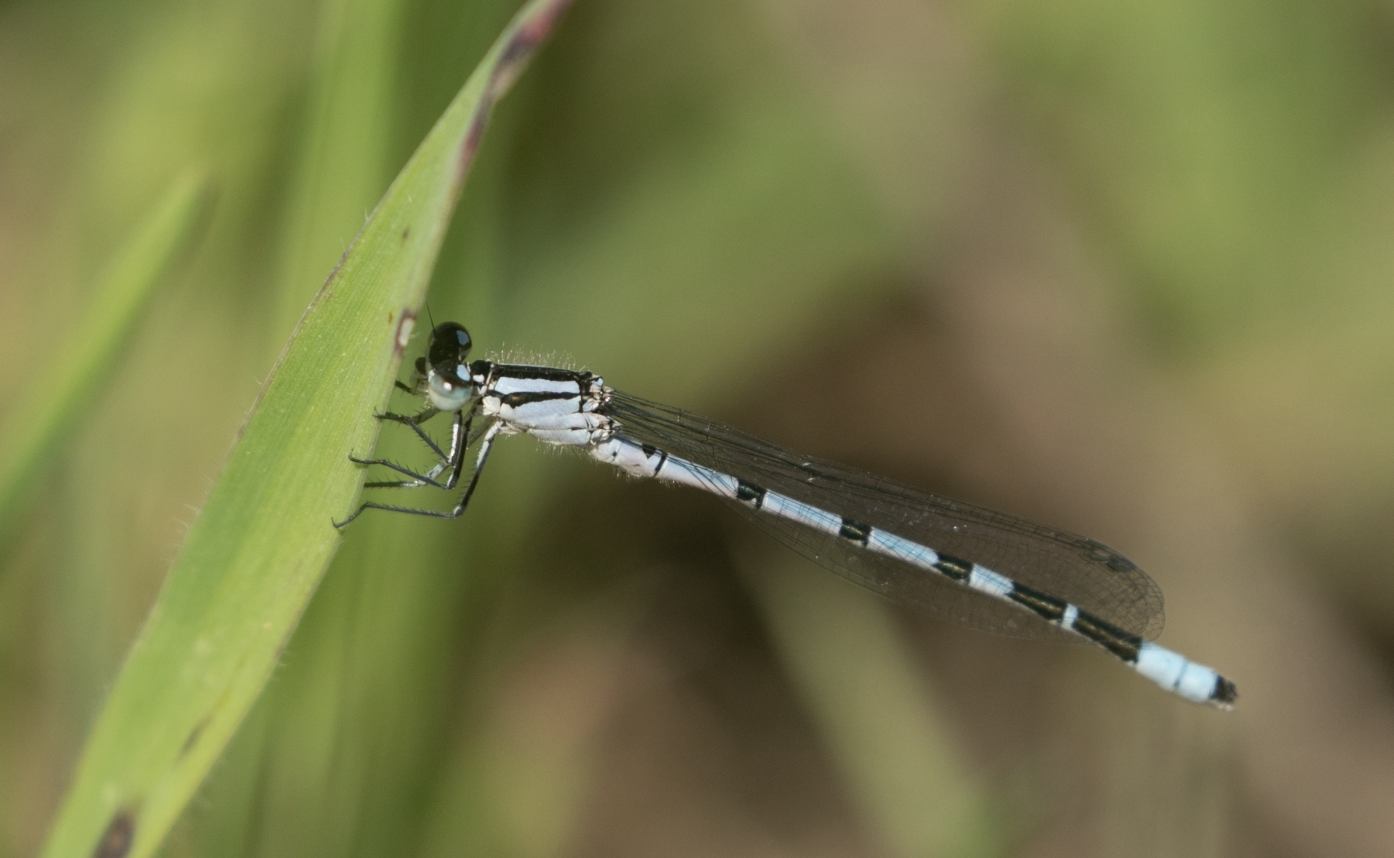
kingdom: Animalia
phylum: Arthropoda
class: Insecta
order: Odonata
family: Coenagrionidae
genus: Enallagma
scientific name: Enallagma cyathigerum
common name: Common blue damselfly
